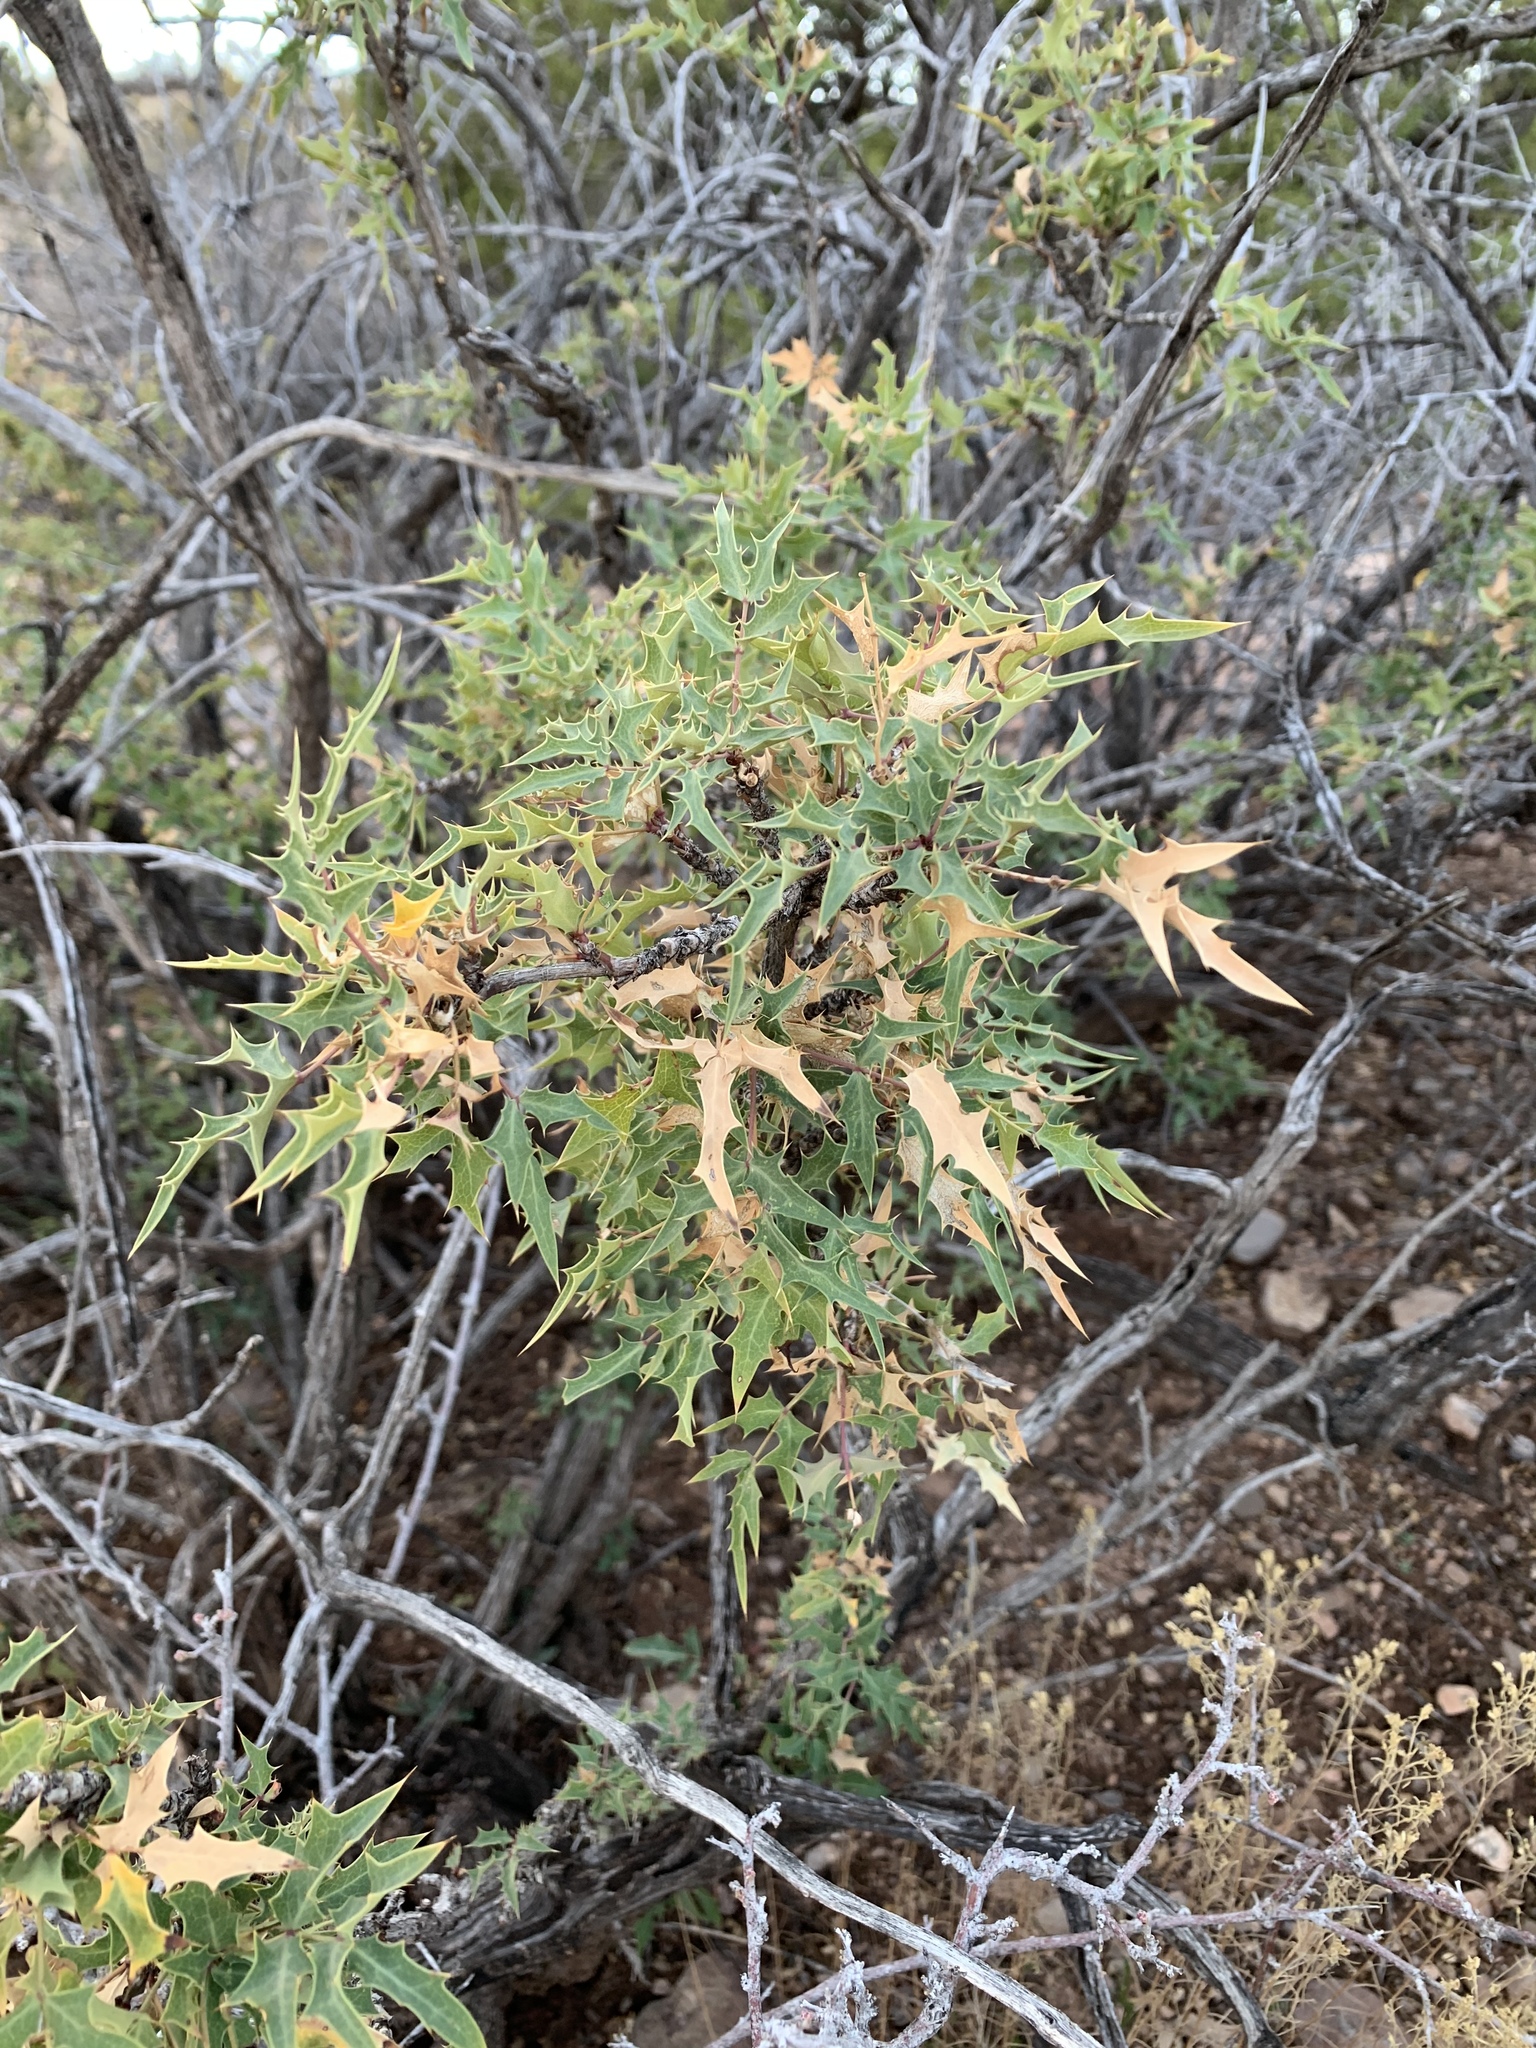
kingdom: Plantae
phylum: Tracheophyta
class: Magnoliopsida
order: Ranunculales
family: Berberidaceae
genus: Alloberberis
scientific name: Alloberberis haematocarpa
